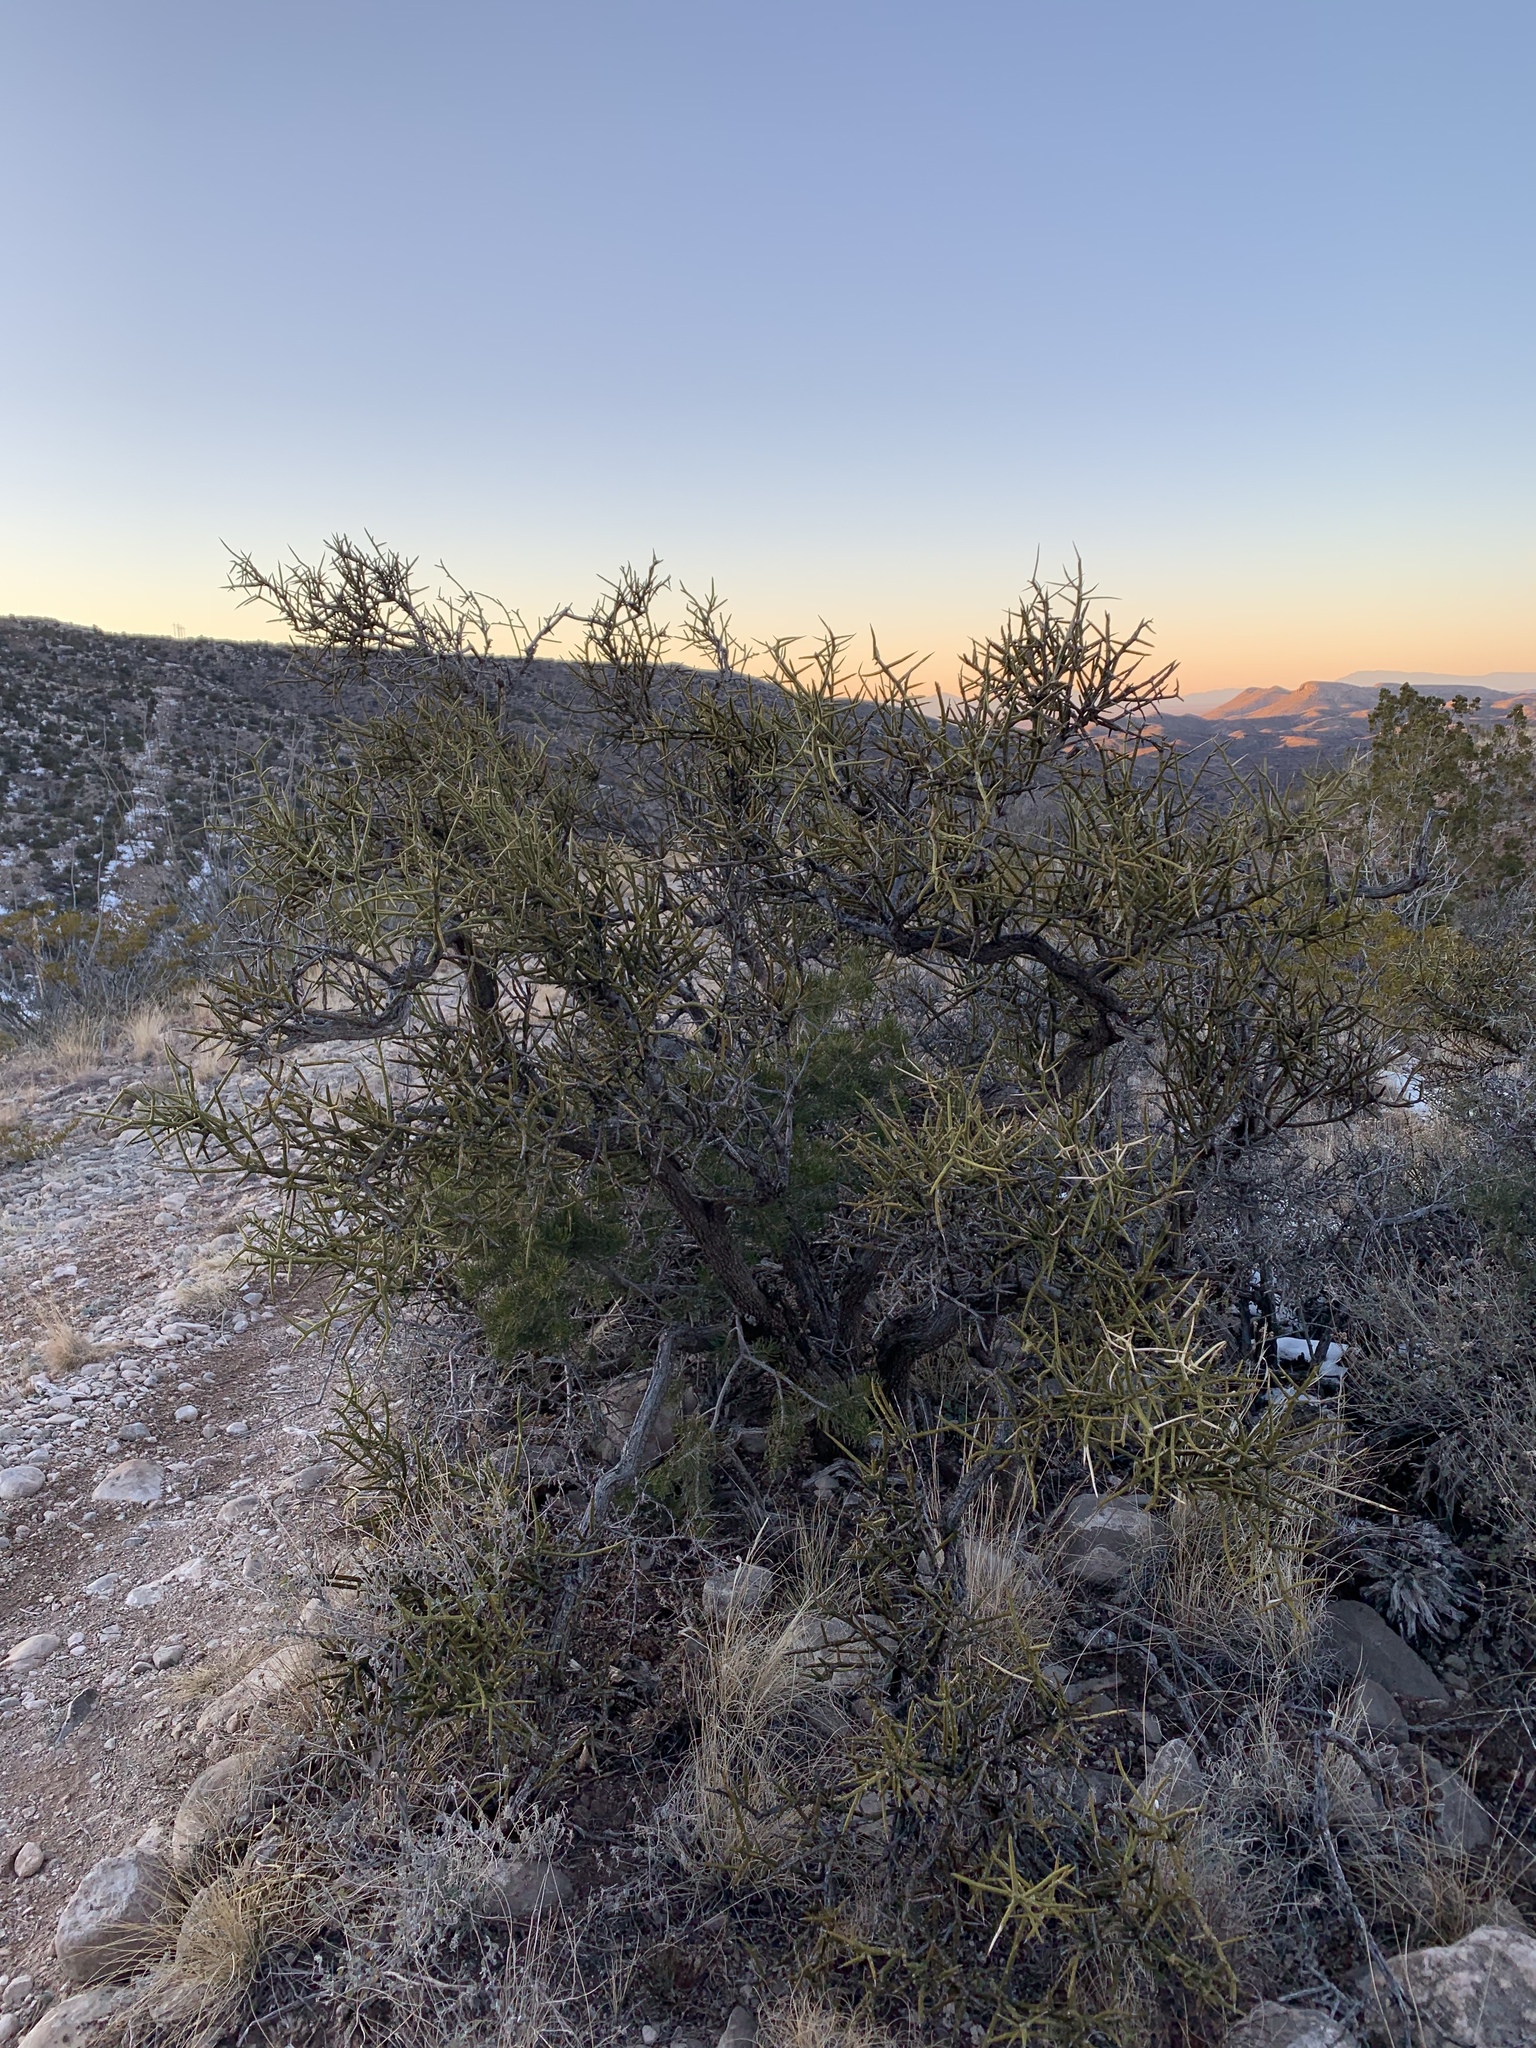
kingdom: Plantae
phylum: Tracheophyta
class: Magnoliopsida
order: Brassicales
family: Koeberliniaceae
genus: Koeberlinia
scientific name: Koeberlinia spinosa
